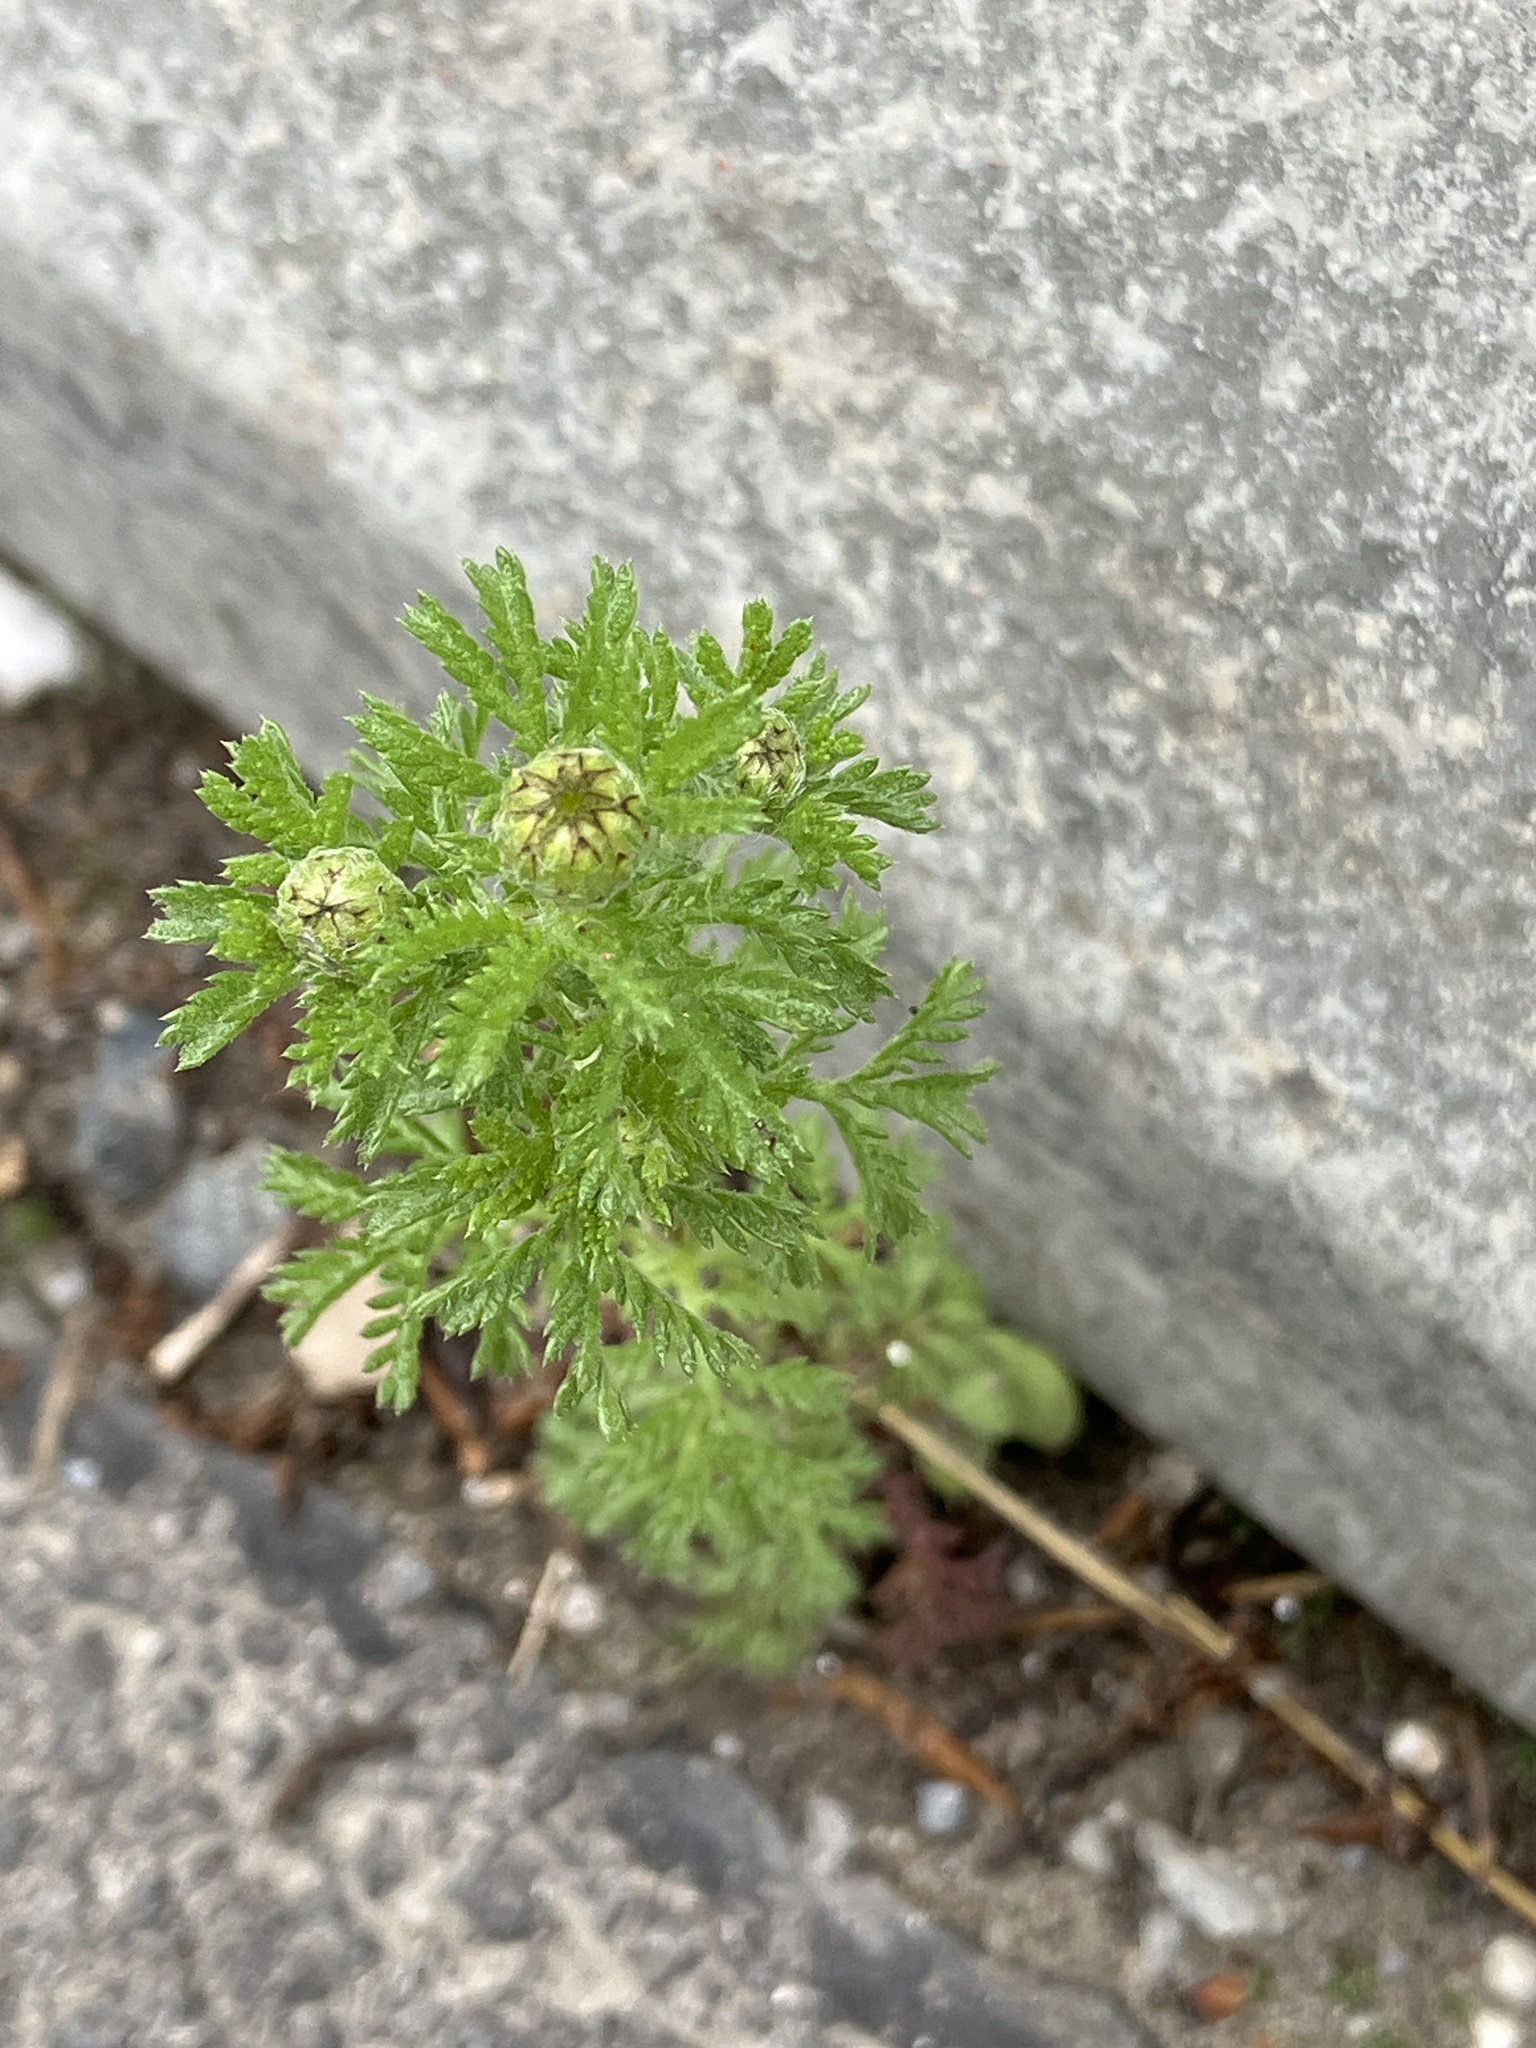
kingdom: Plantae
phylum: Tracheophyta
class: Magnoliopsida
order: Asterales
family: Asteraceae
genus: Cota
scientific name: Cota austriaca
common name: Austrian chamomile
